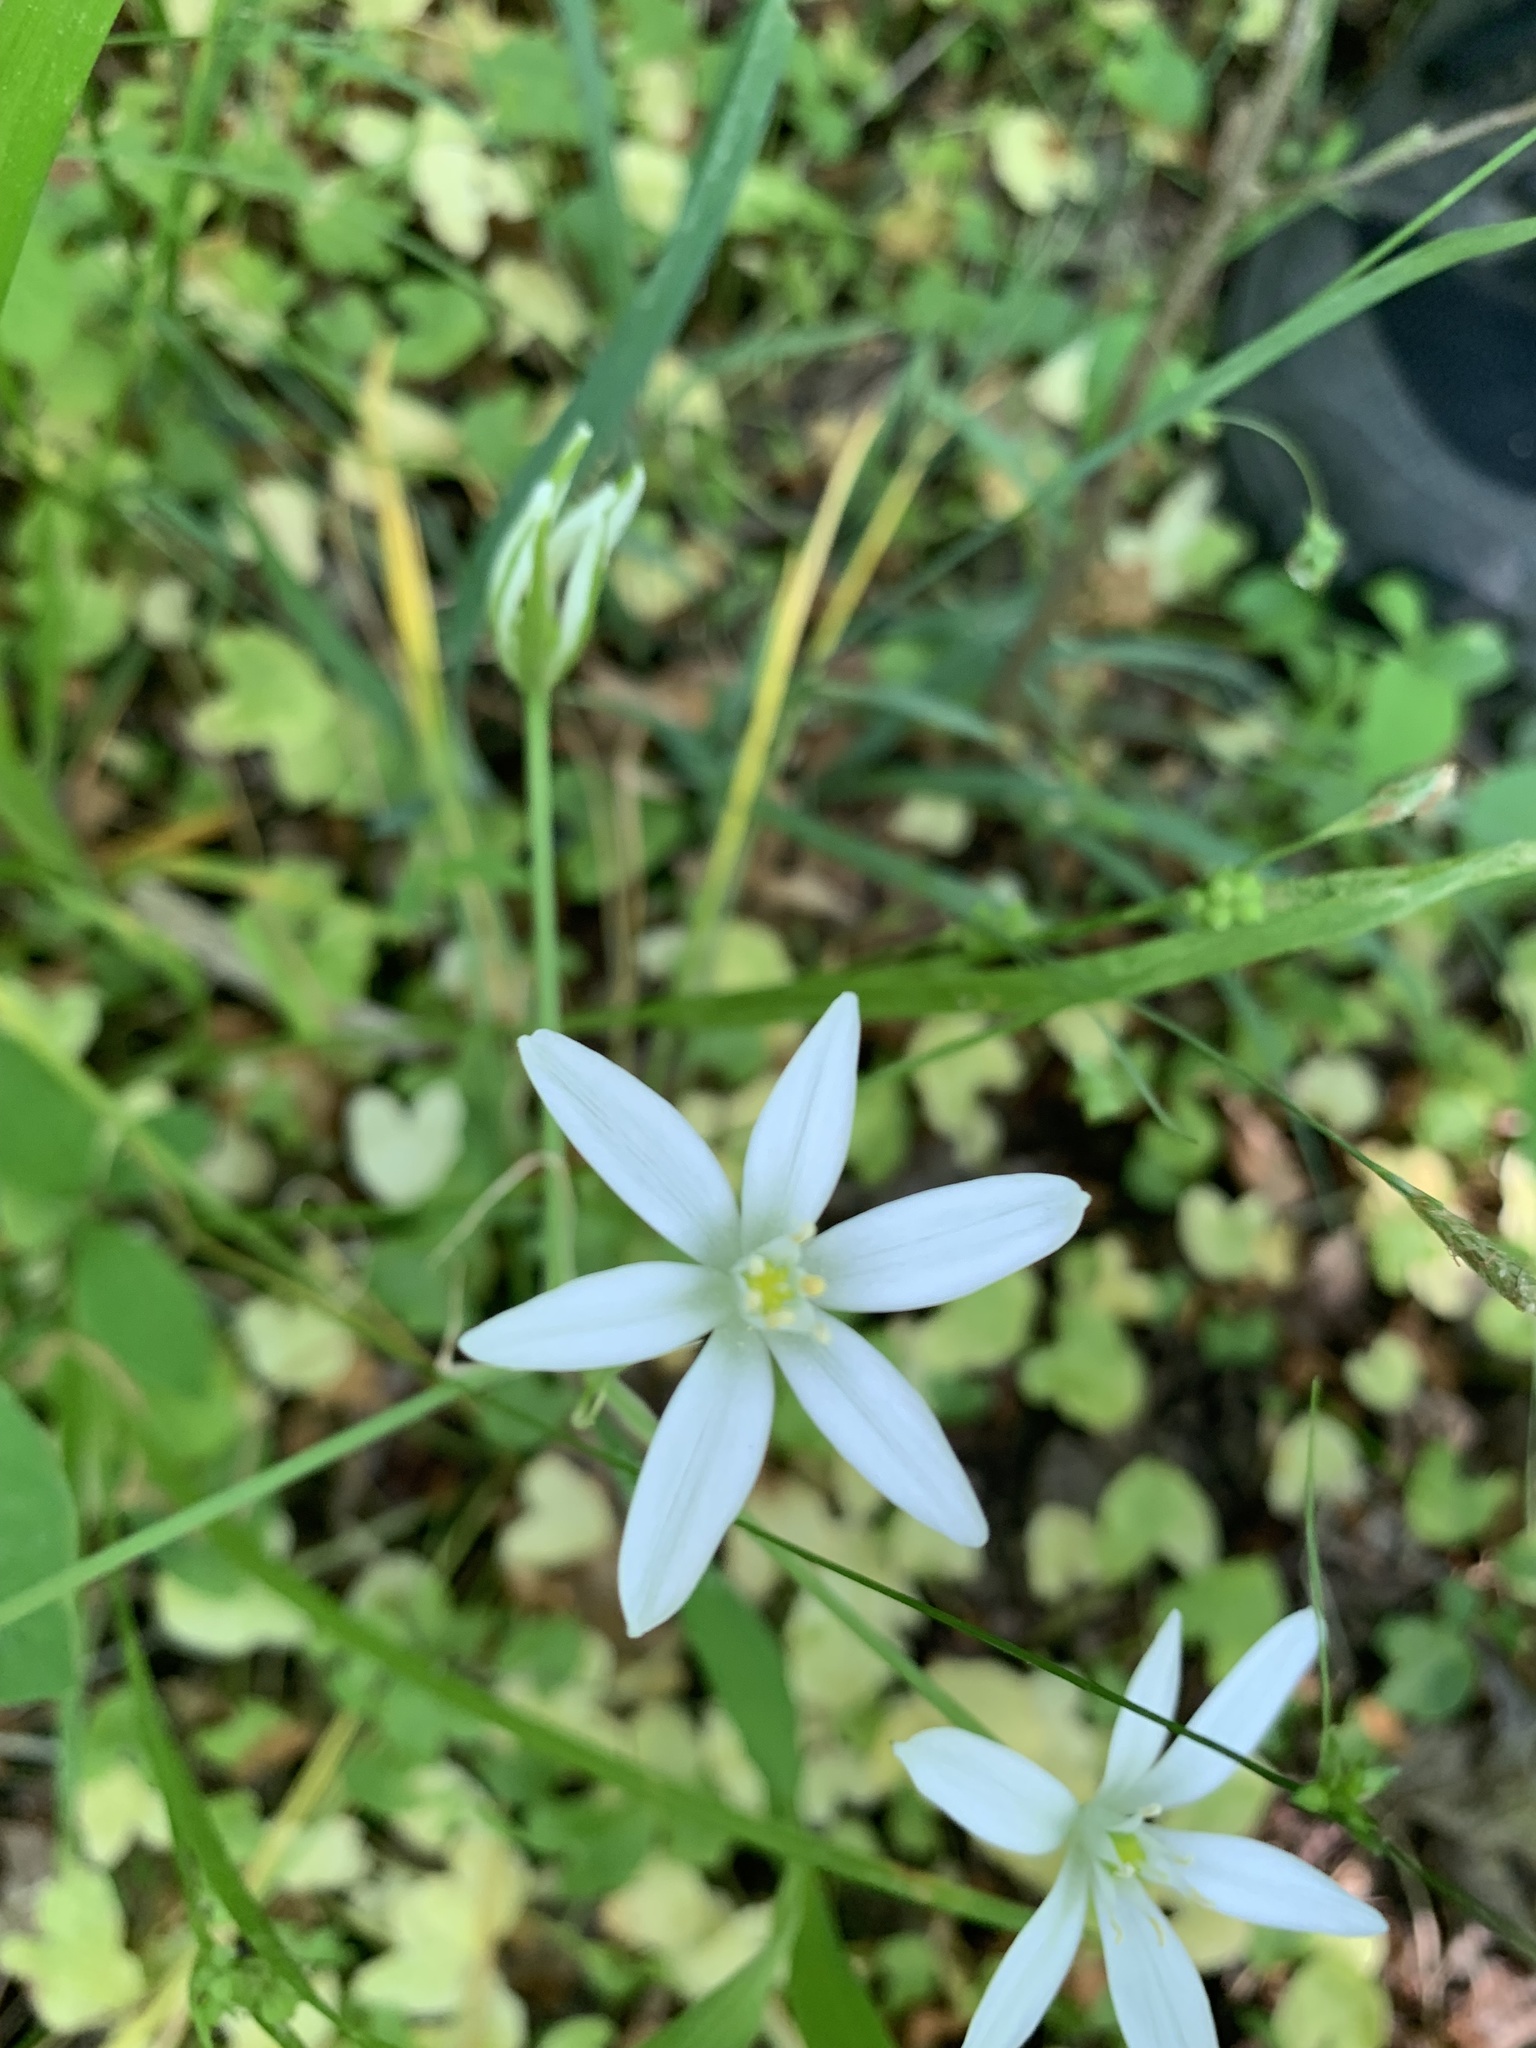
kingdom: Plantae
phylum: Tracheophyta
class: Liliopsida
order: Asparagales
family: Asparagaceae
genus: Ornithogalum
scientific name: Ornithogalum umbellatum
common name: Garden star-of-bethlehem
